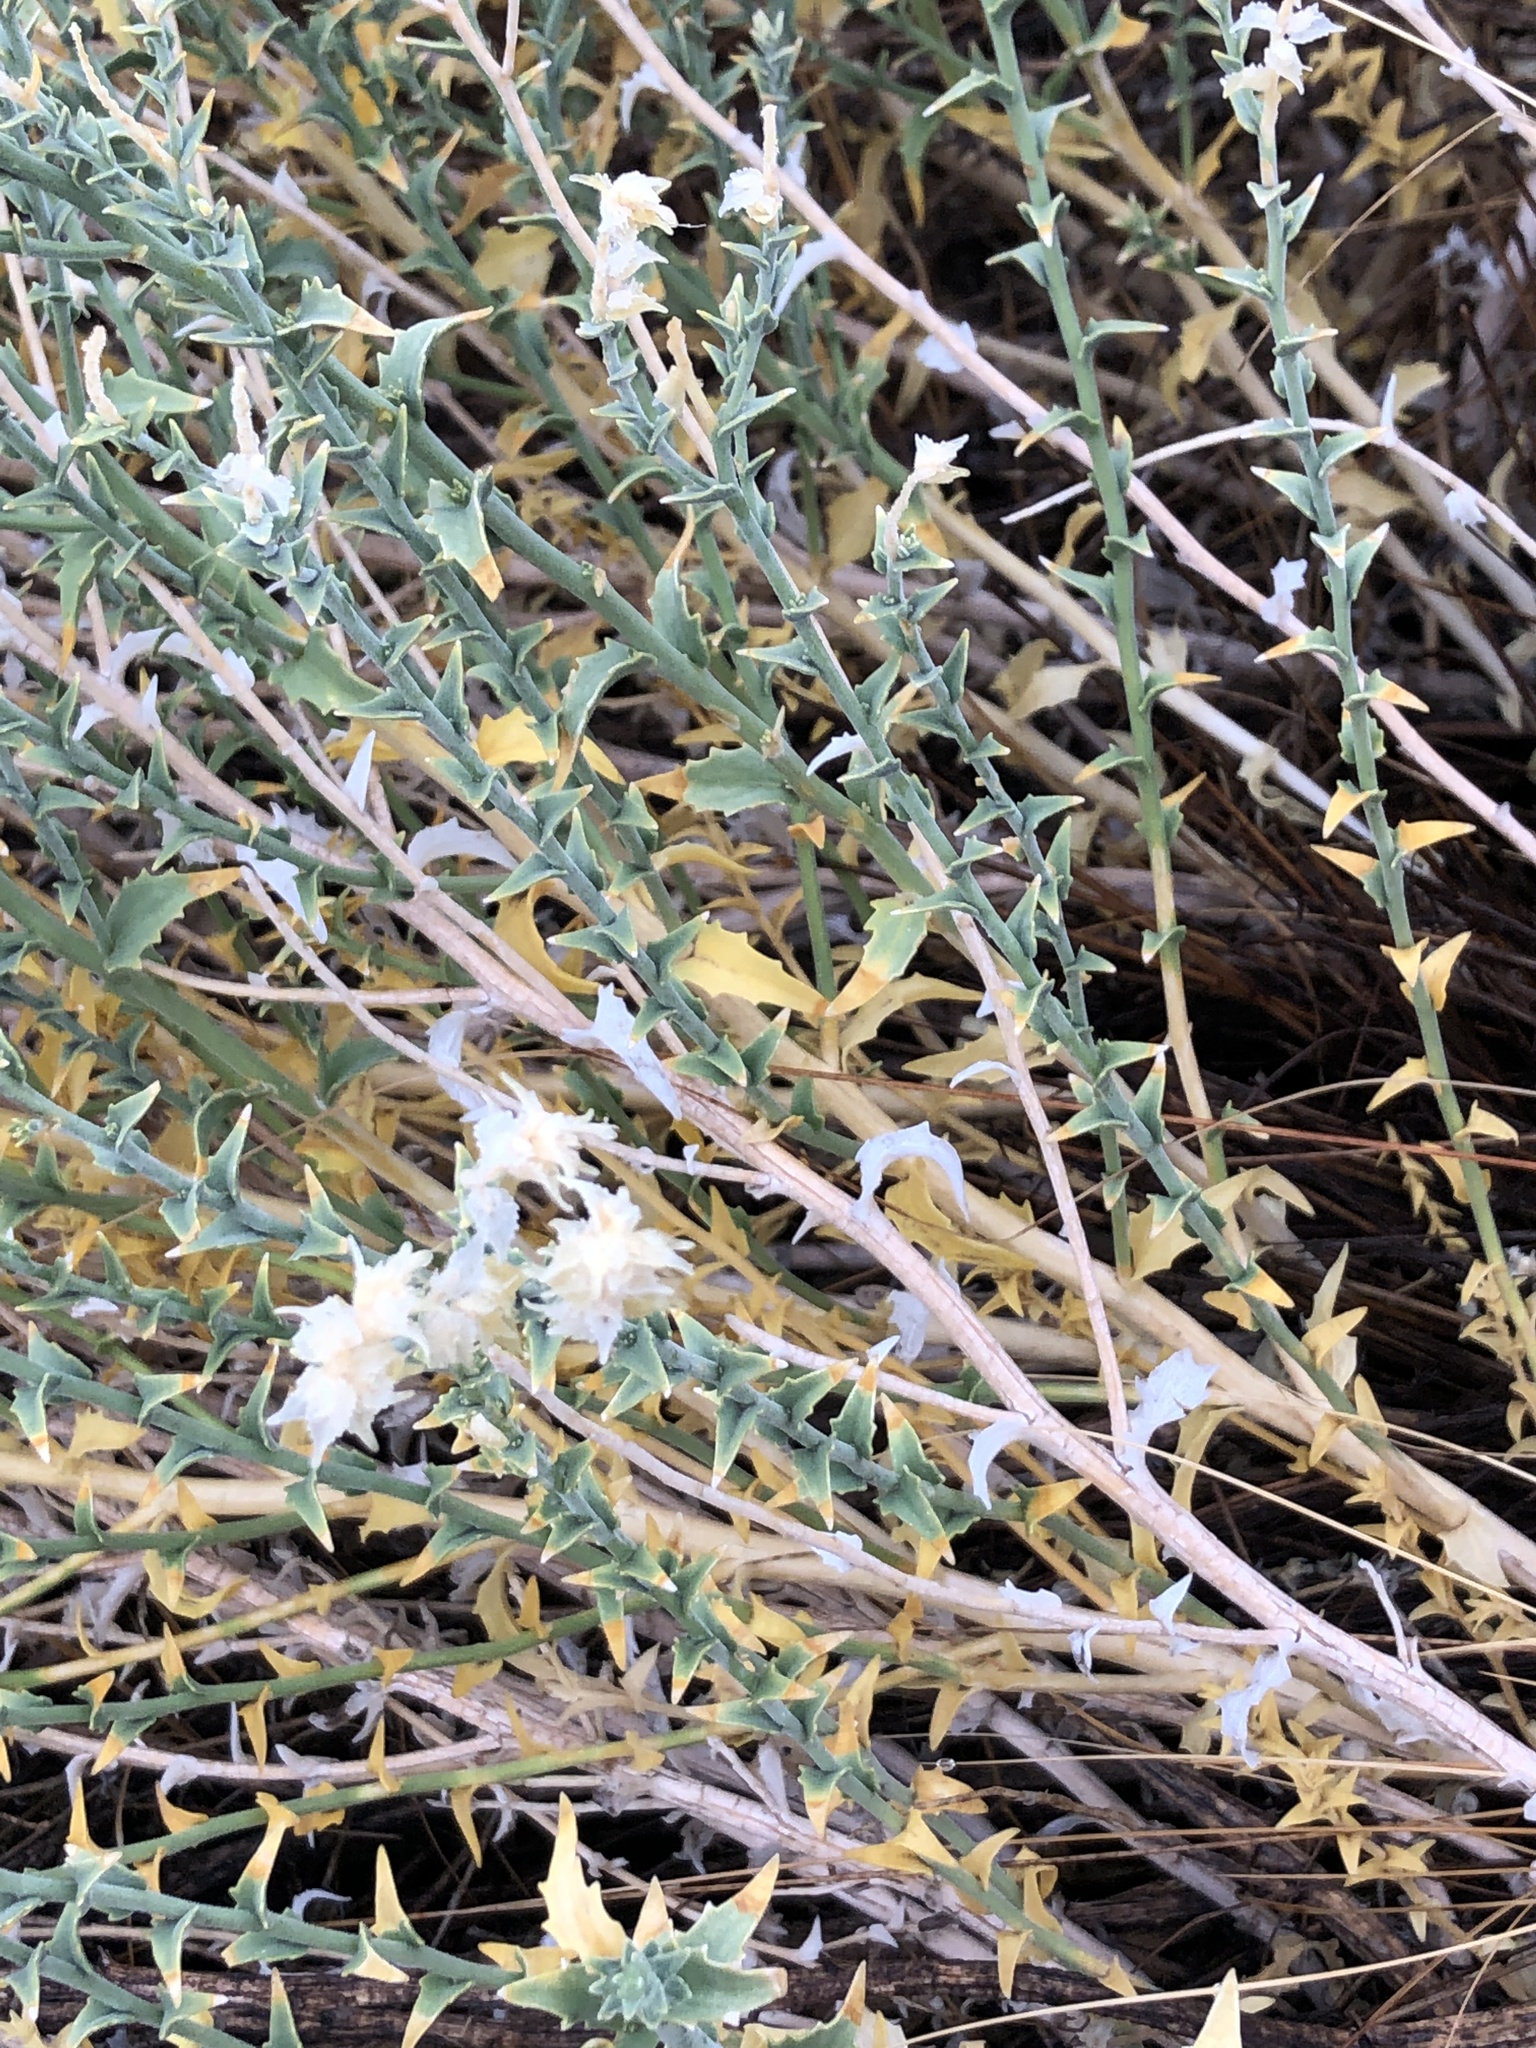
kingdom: Plantae
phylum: Tracheophyta
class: Magnoliopsida
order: Cornales
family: Loasaceae
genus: Petalonyx
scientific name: Petalonyx thurberi
